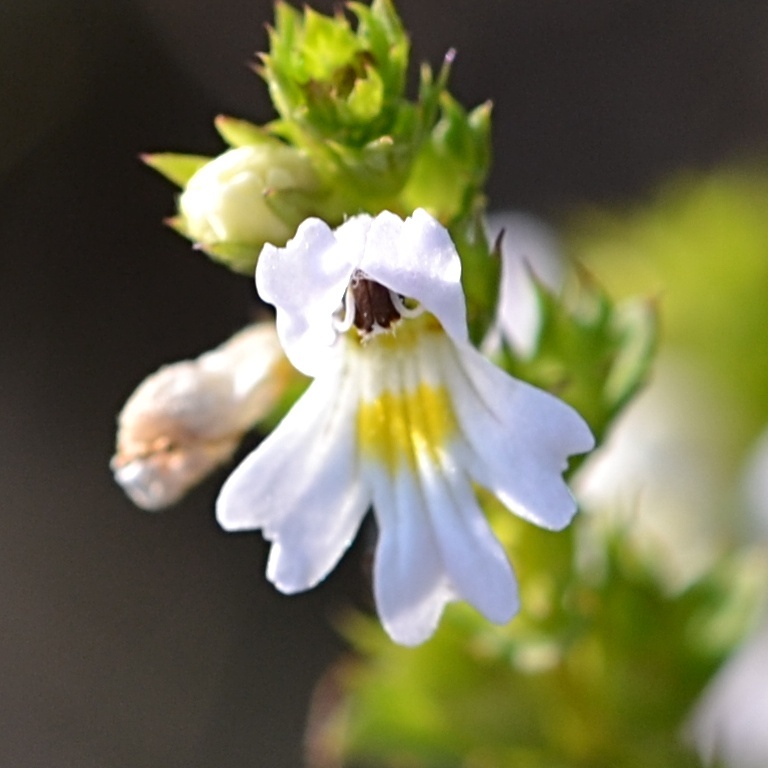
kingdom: Plantae
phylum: Tracheophyta
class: Magnoliopsida
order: Lamiales
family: Orobanchaceae
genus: Euphrasia
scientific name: Euphrasia stricta
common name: Drug eyebright
